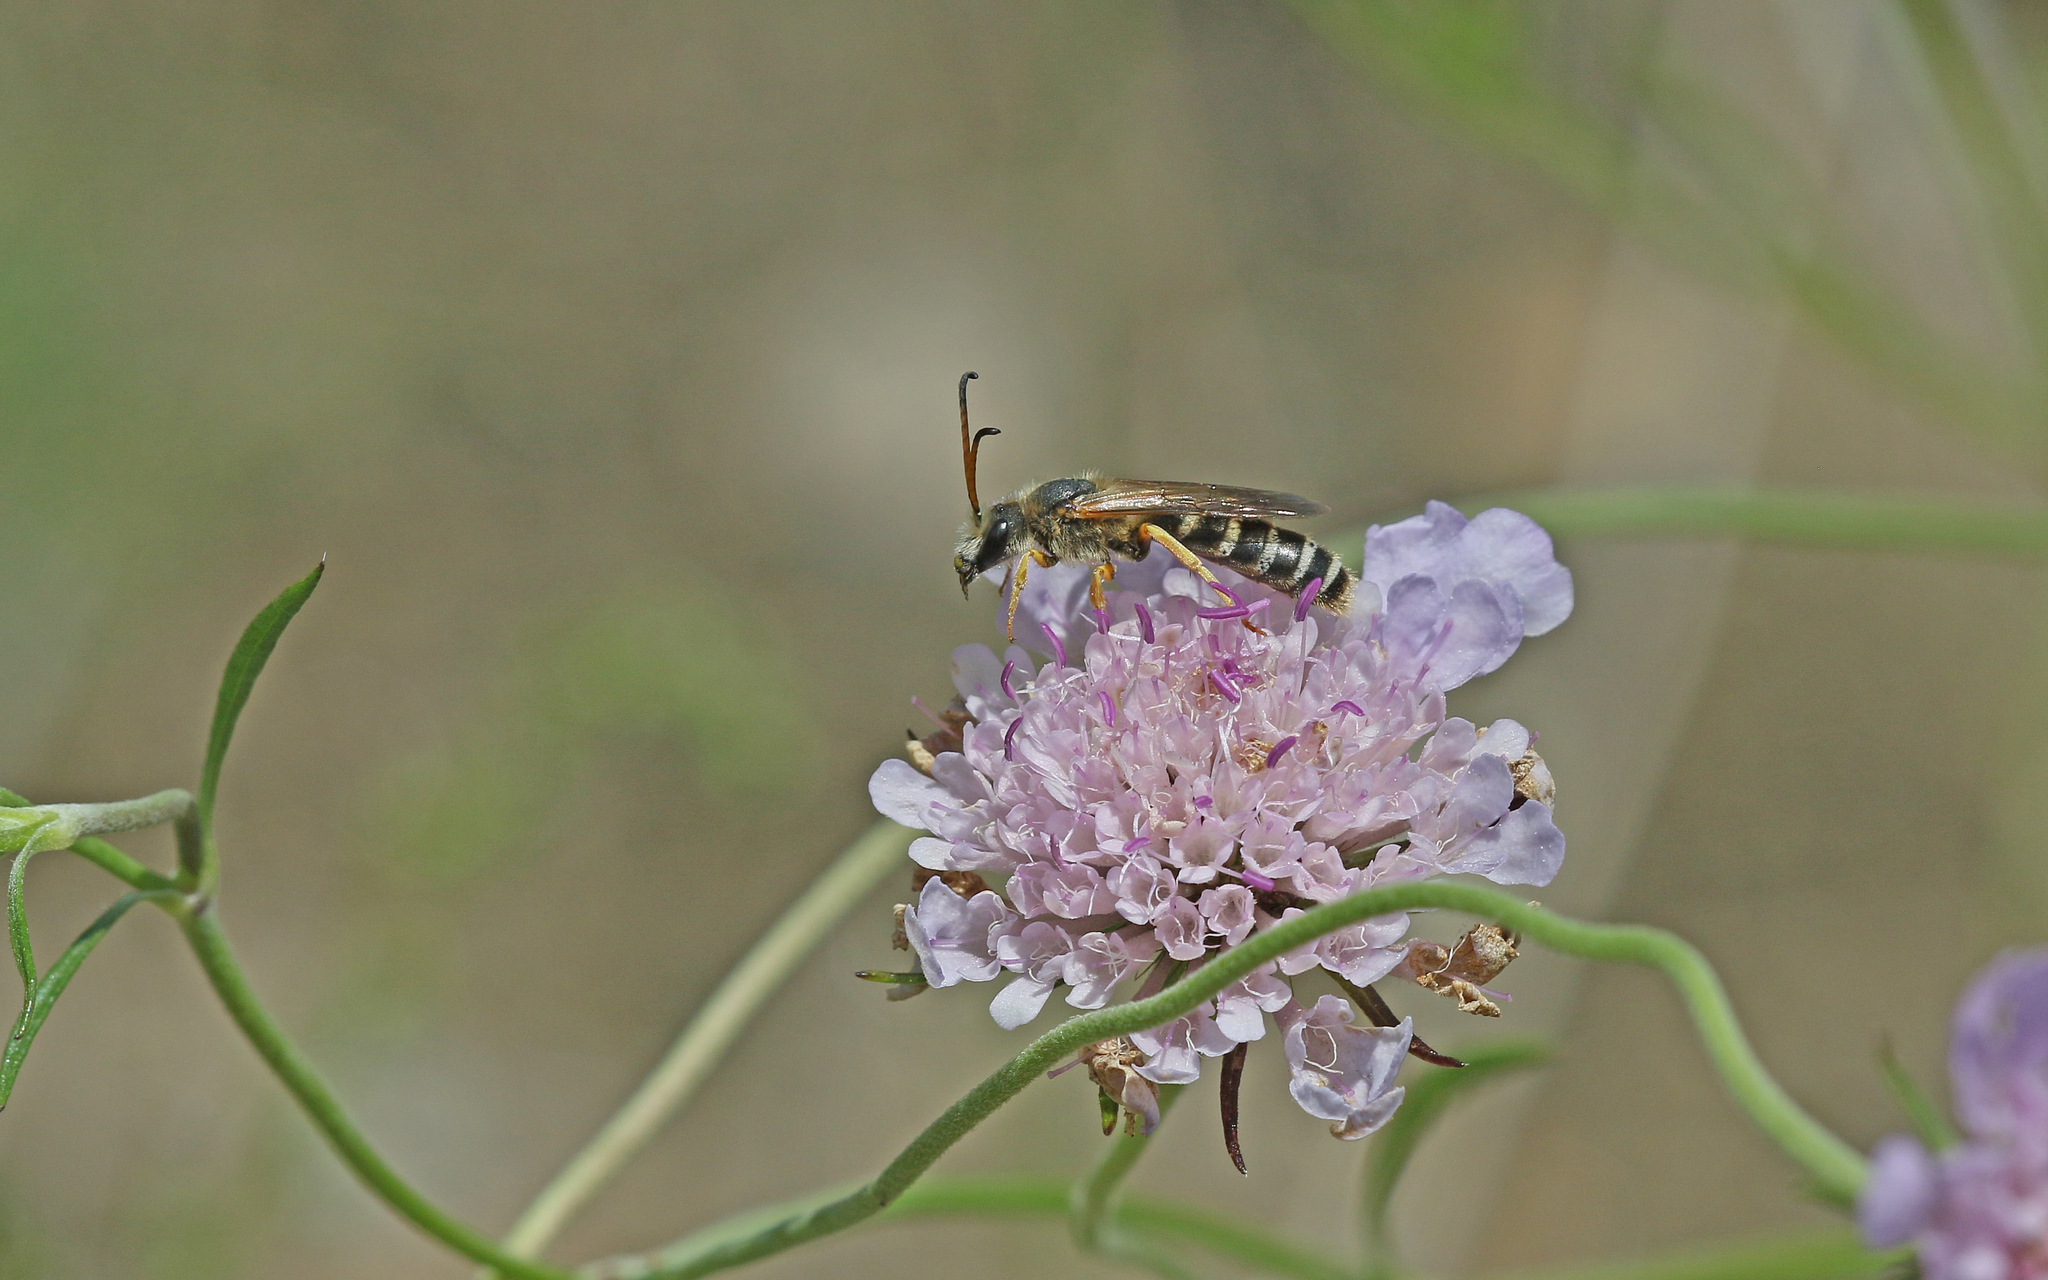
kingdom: Animalia
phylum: Arthropoda
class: Insecta
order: Hymenoptera
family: Halictidae
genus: Halictus
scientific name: Halictus sexcinctus
